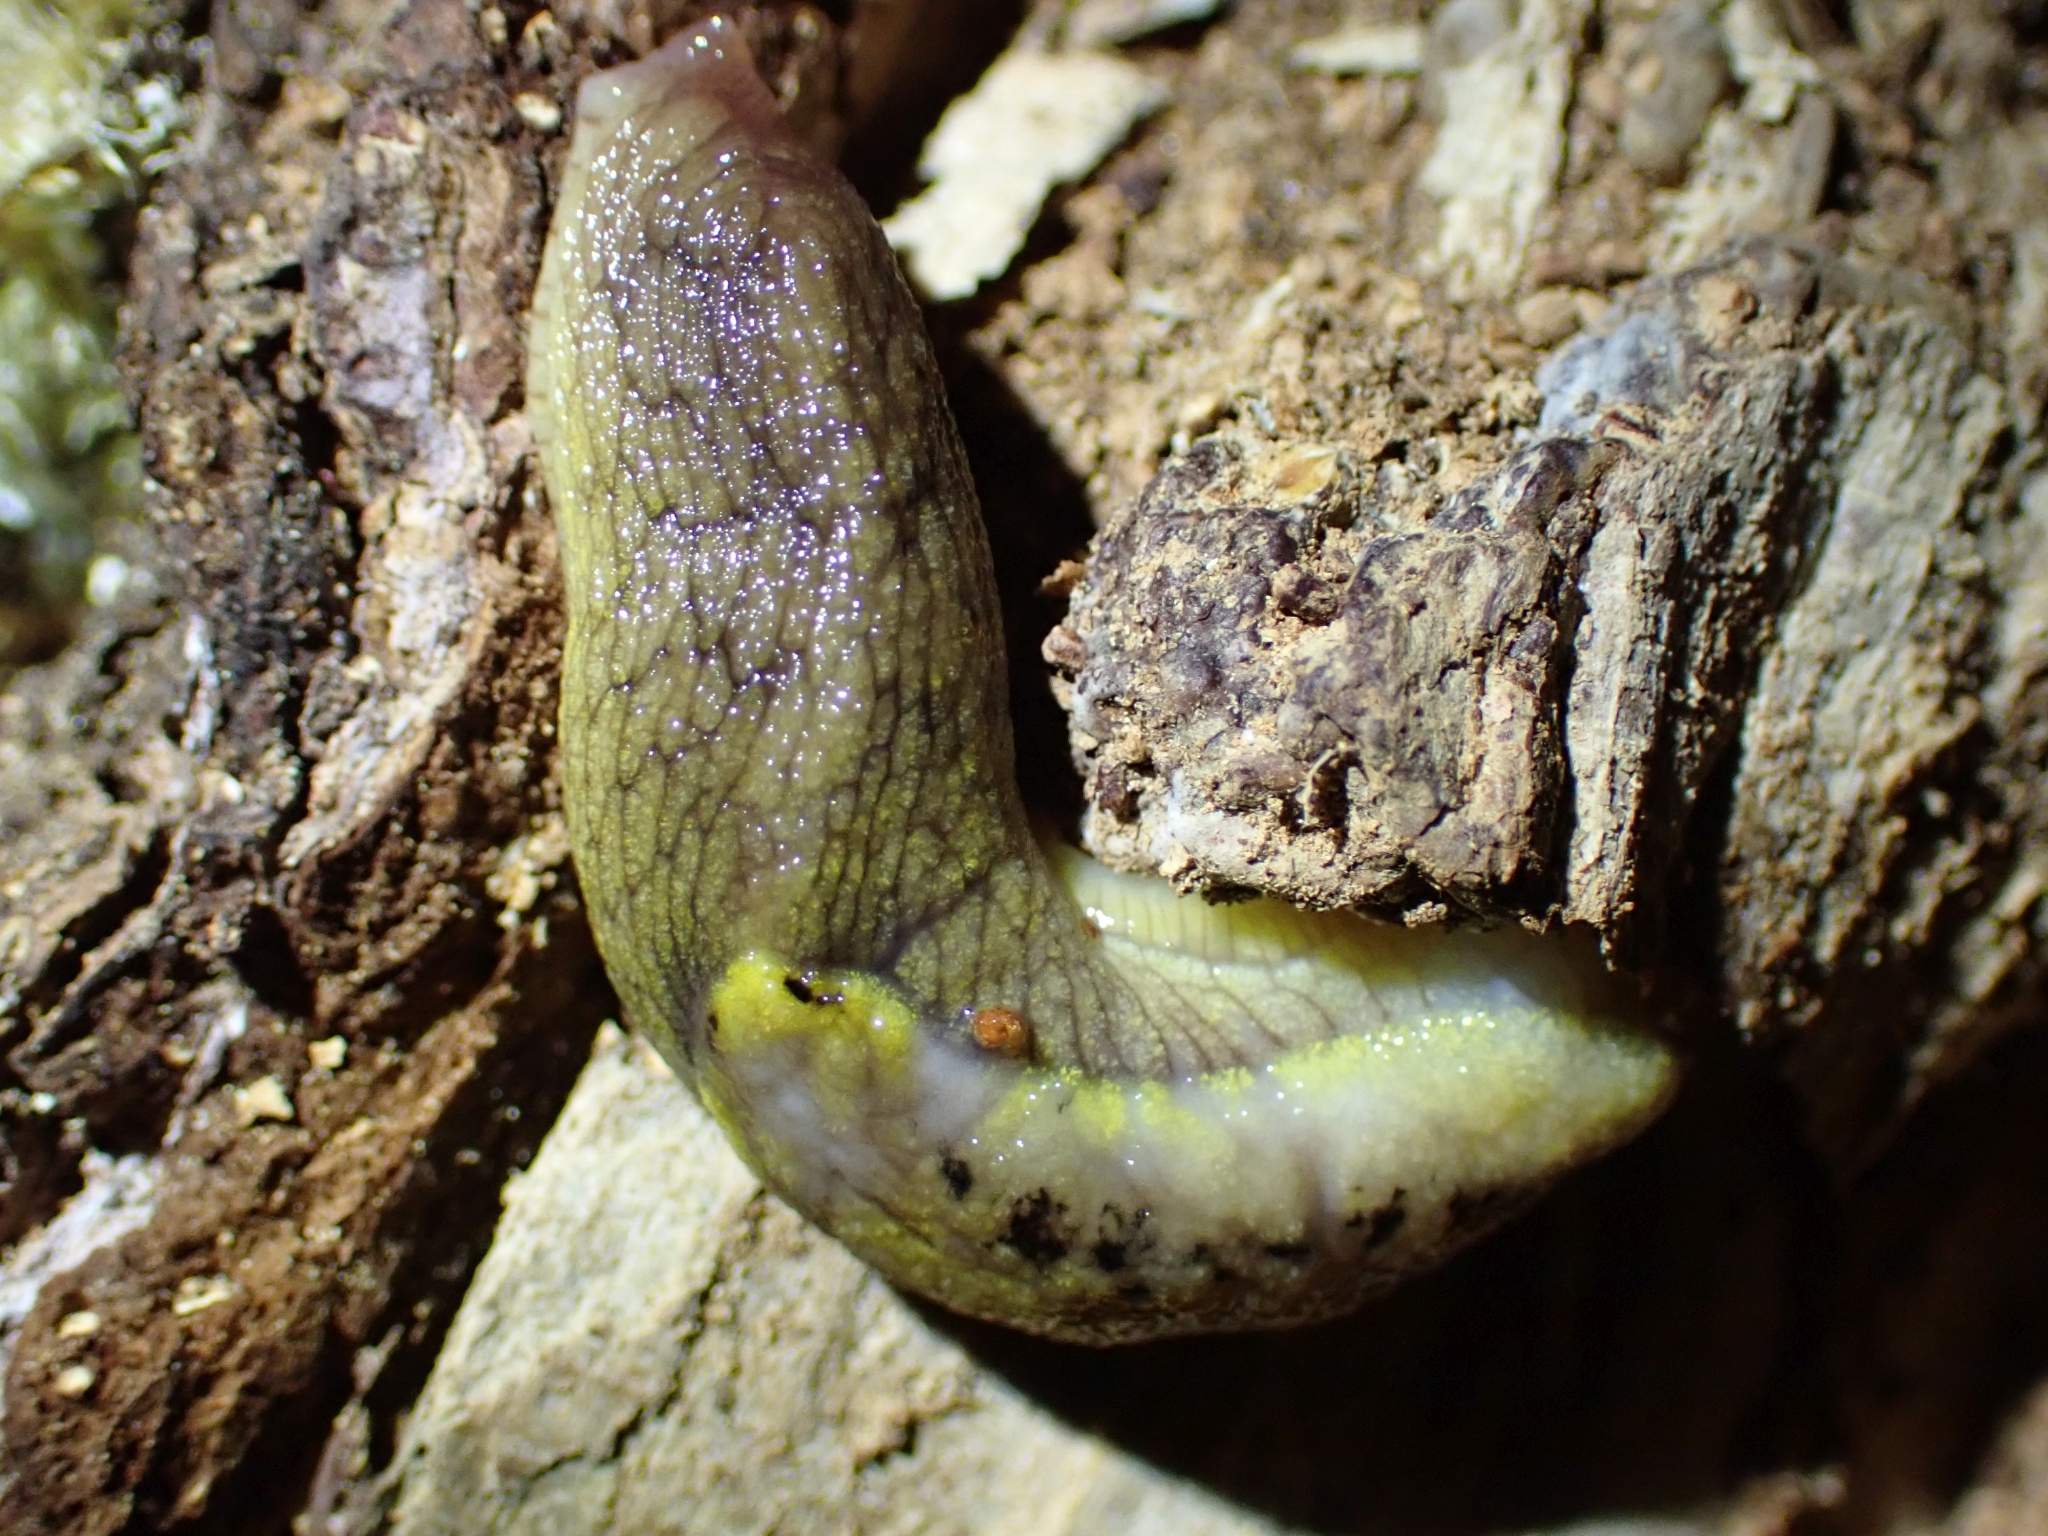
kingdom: Animalia
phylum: Mollusca
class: Gastropoda
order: Stylommatophora
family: Ariolimacidae
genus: Prophysaon
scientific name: Prophysaon foliolatum
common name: Yellow-bordered taildropper
